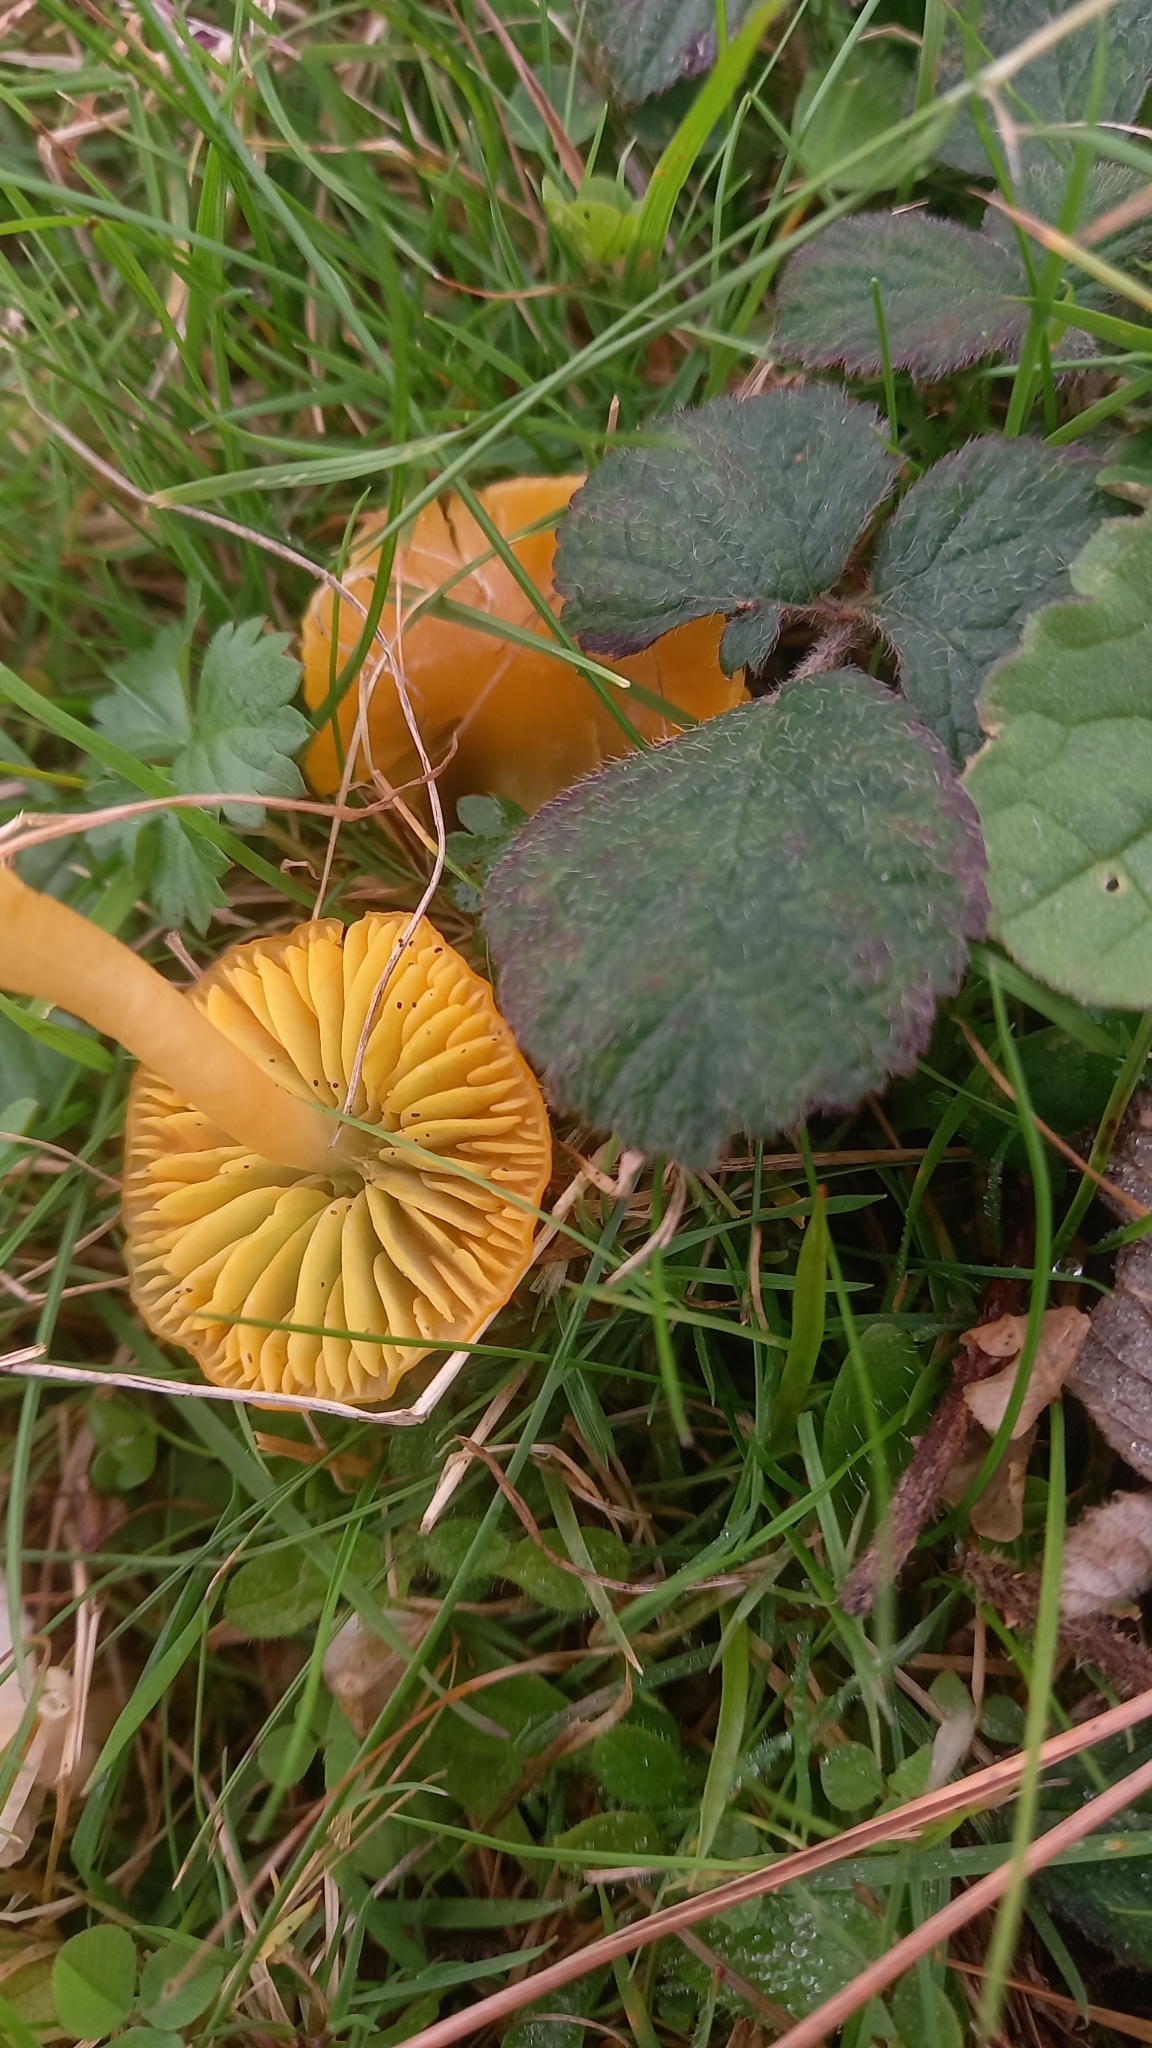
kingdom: Fungi
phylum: Basidiomycota
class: Agaricomycetes
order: Agaricales
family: Hygrophoraceae
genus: Gliophorus
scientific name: Gliophorus psittacinus
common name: Parrot wax-cap
